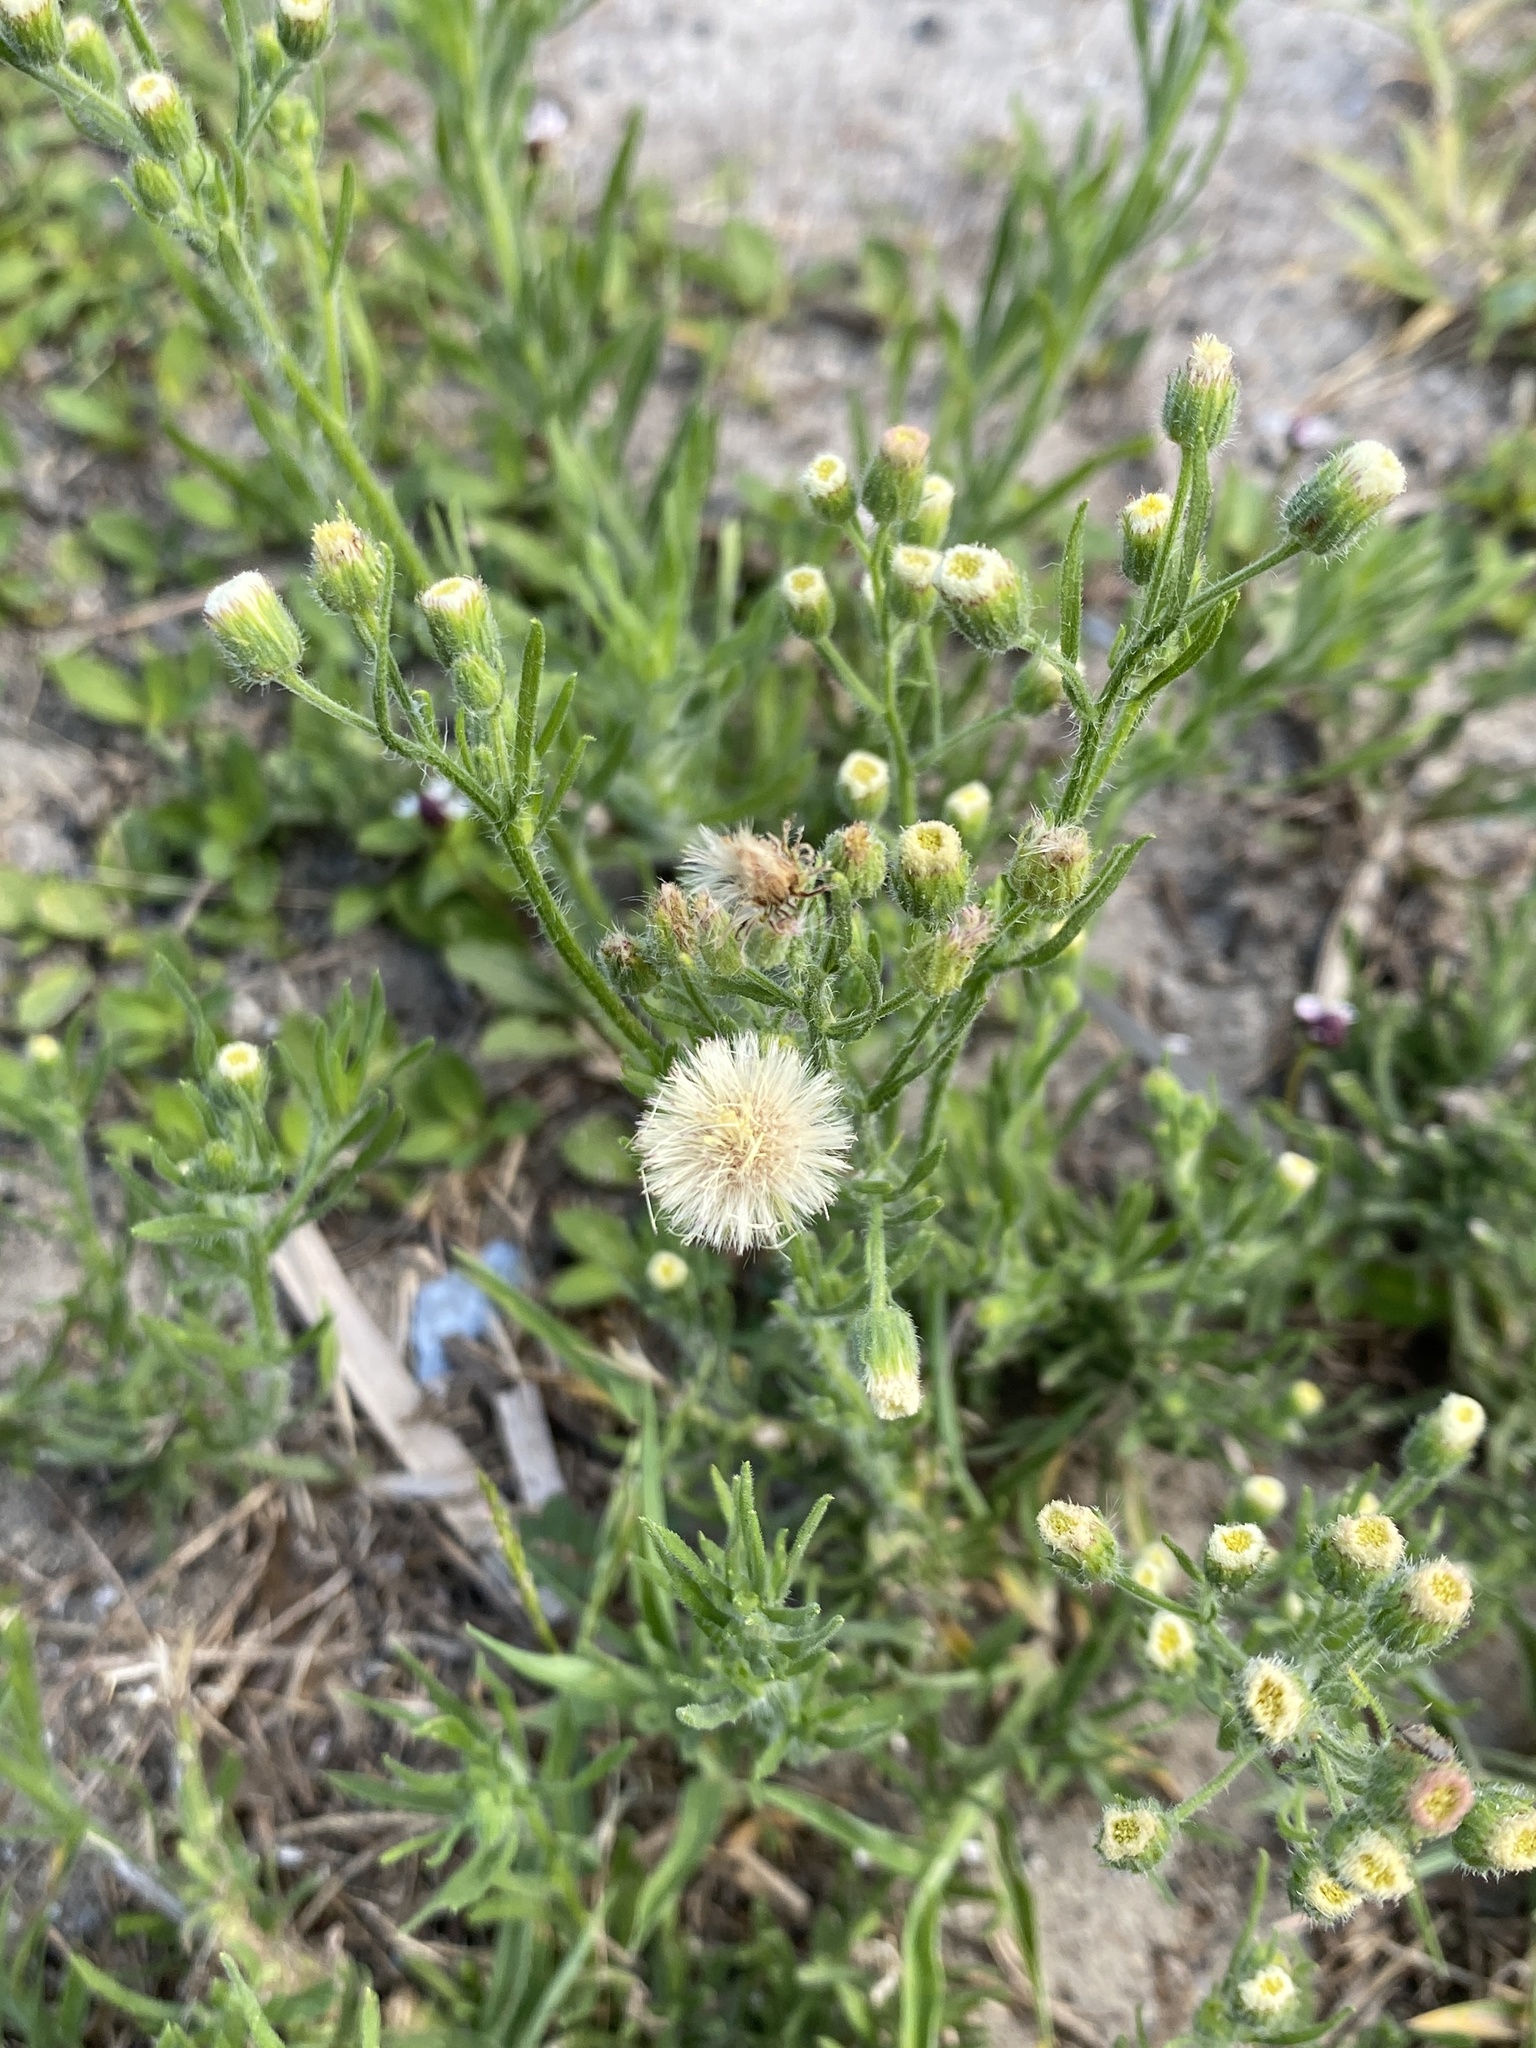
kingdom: Plantae
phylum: Tracheophyta
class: Magnoliopsida
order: Asterales
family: Asteraceae
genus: Erigeron
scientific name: Erigeron bonariensis
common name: Argentine fleabane
